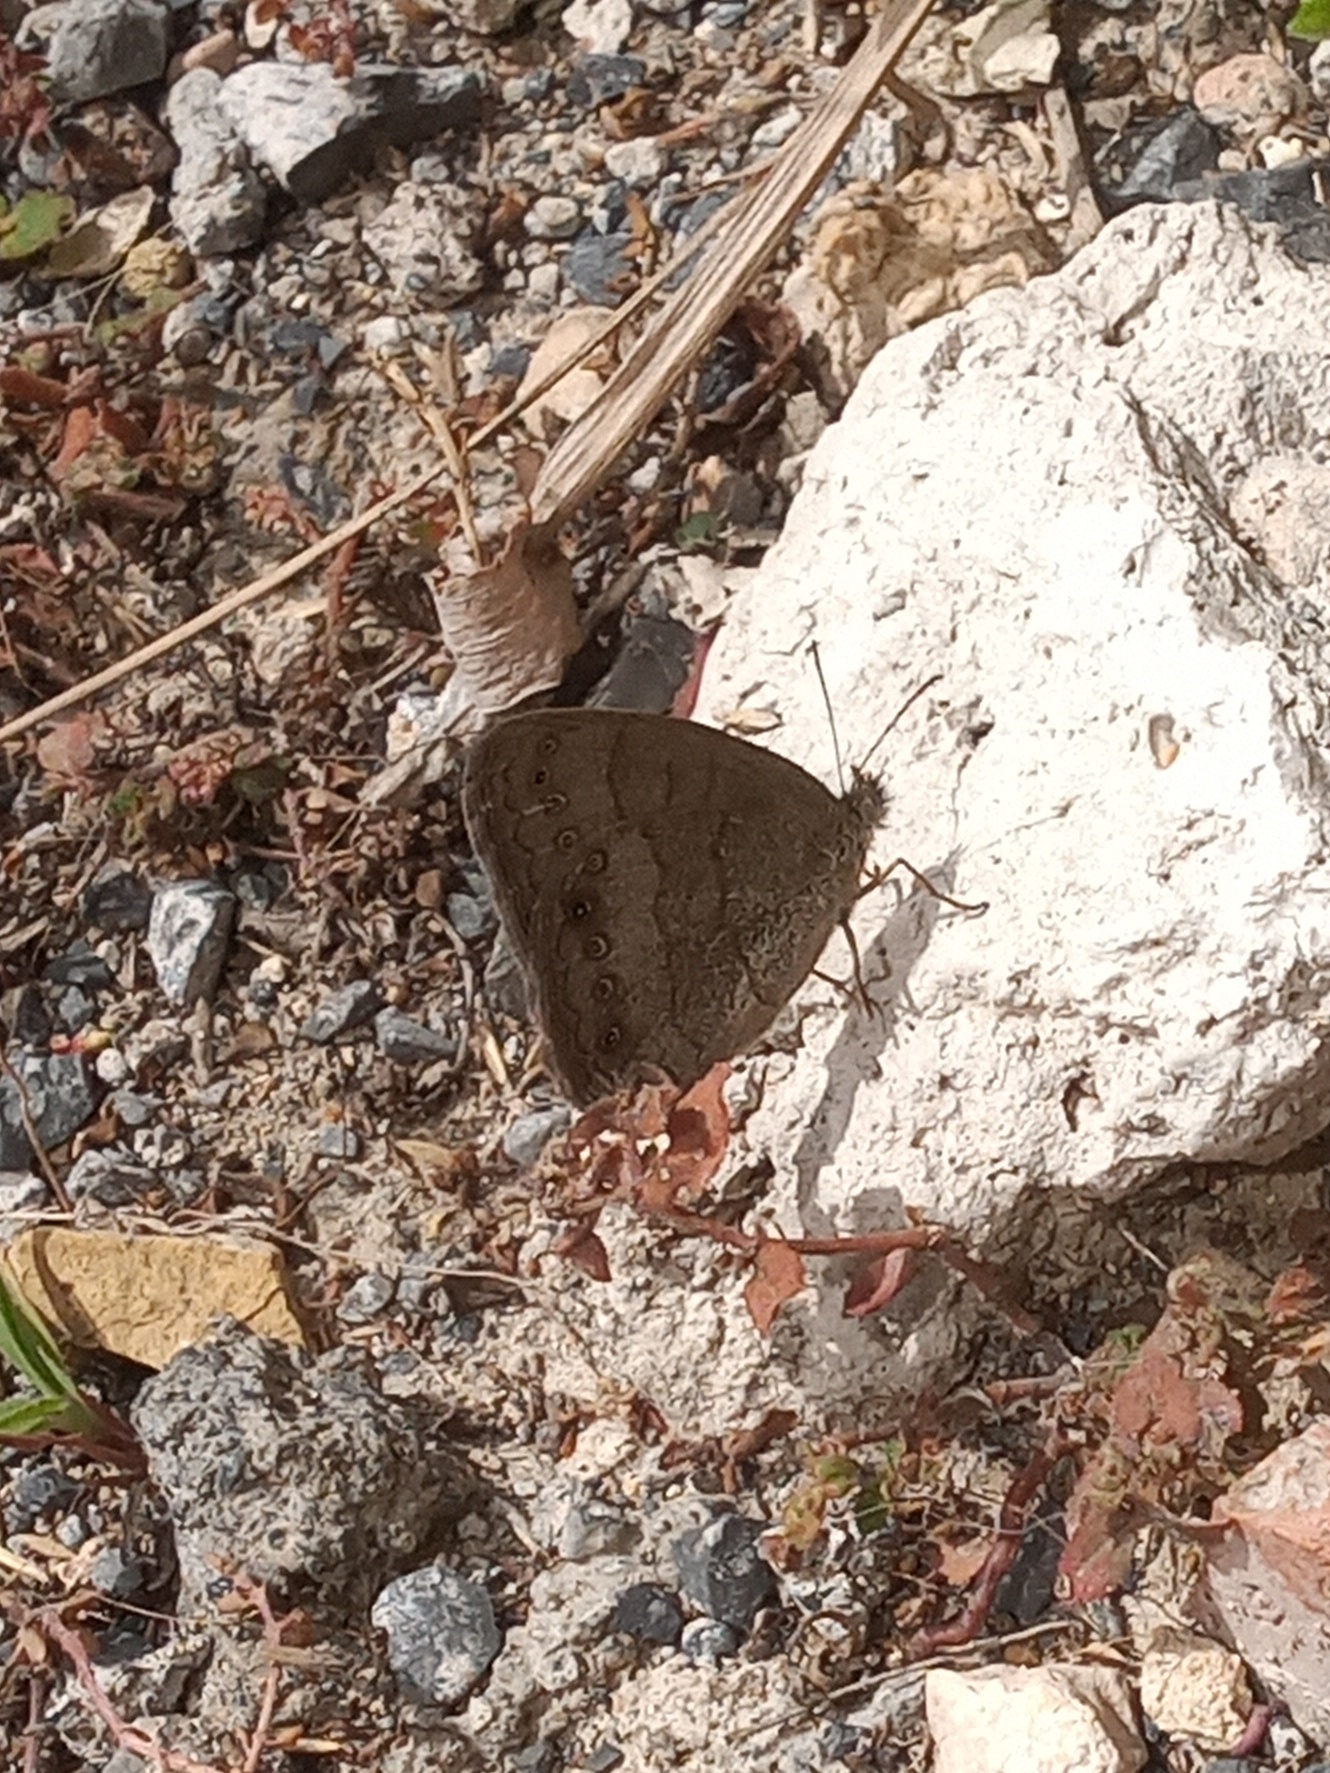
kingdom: Animalia
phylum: Arthropoda
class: Insecta
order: Lepidoptera
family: Nymphalidae
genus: Hermeuptychia
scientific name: Hermeuptychia hermybius
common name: South texas satyr
